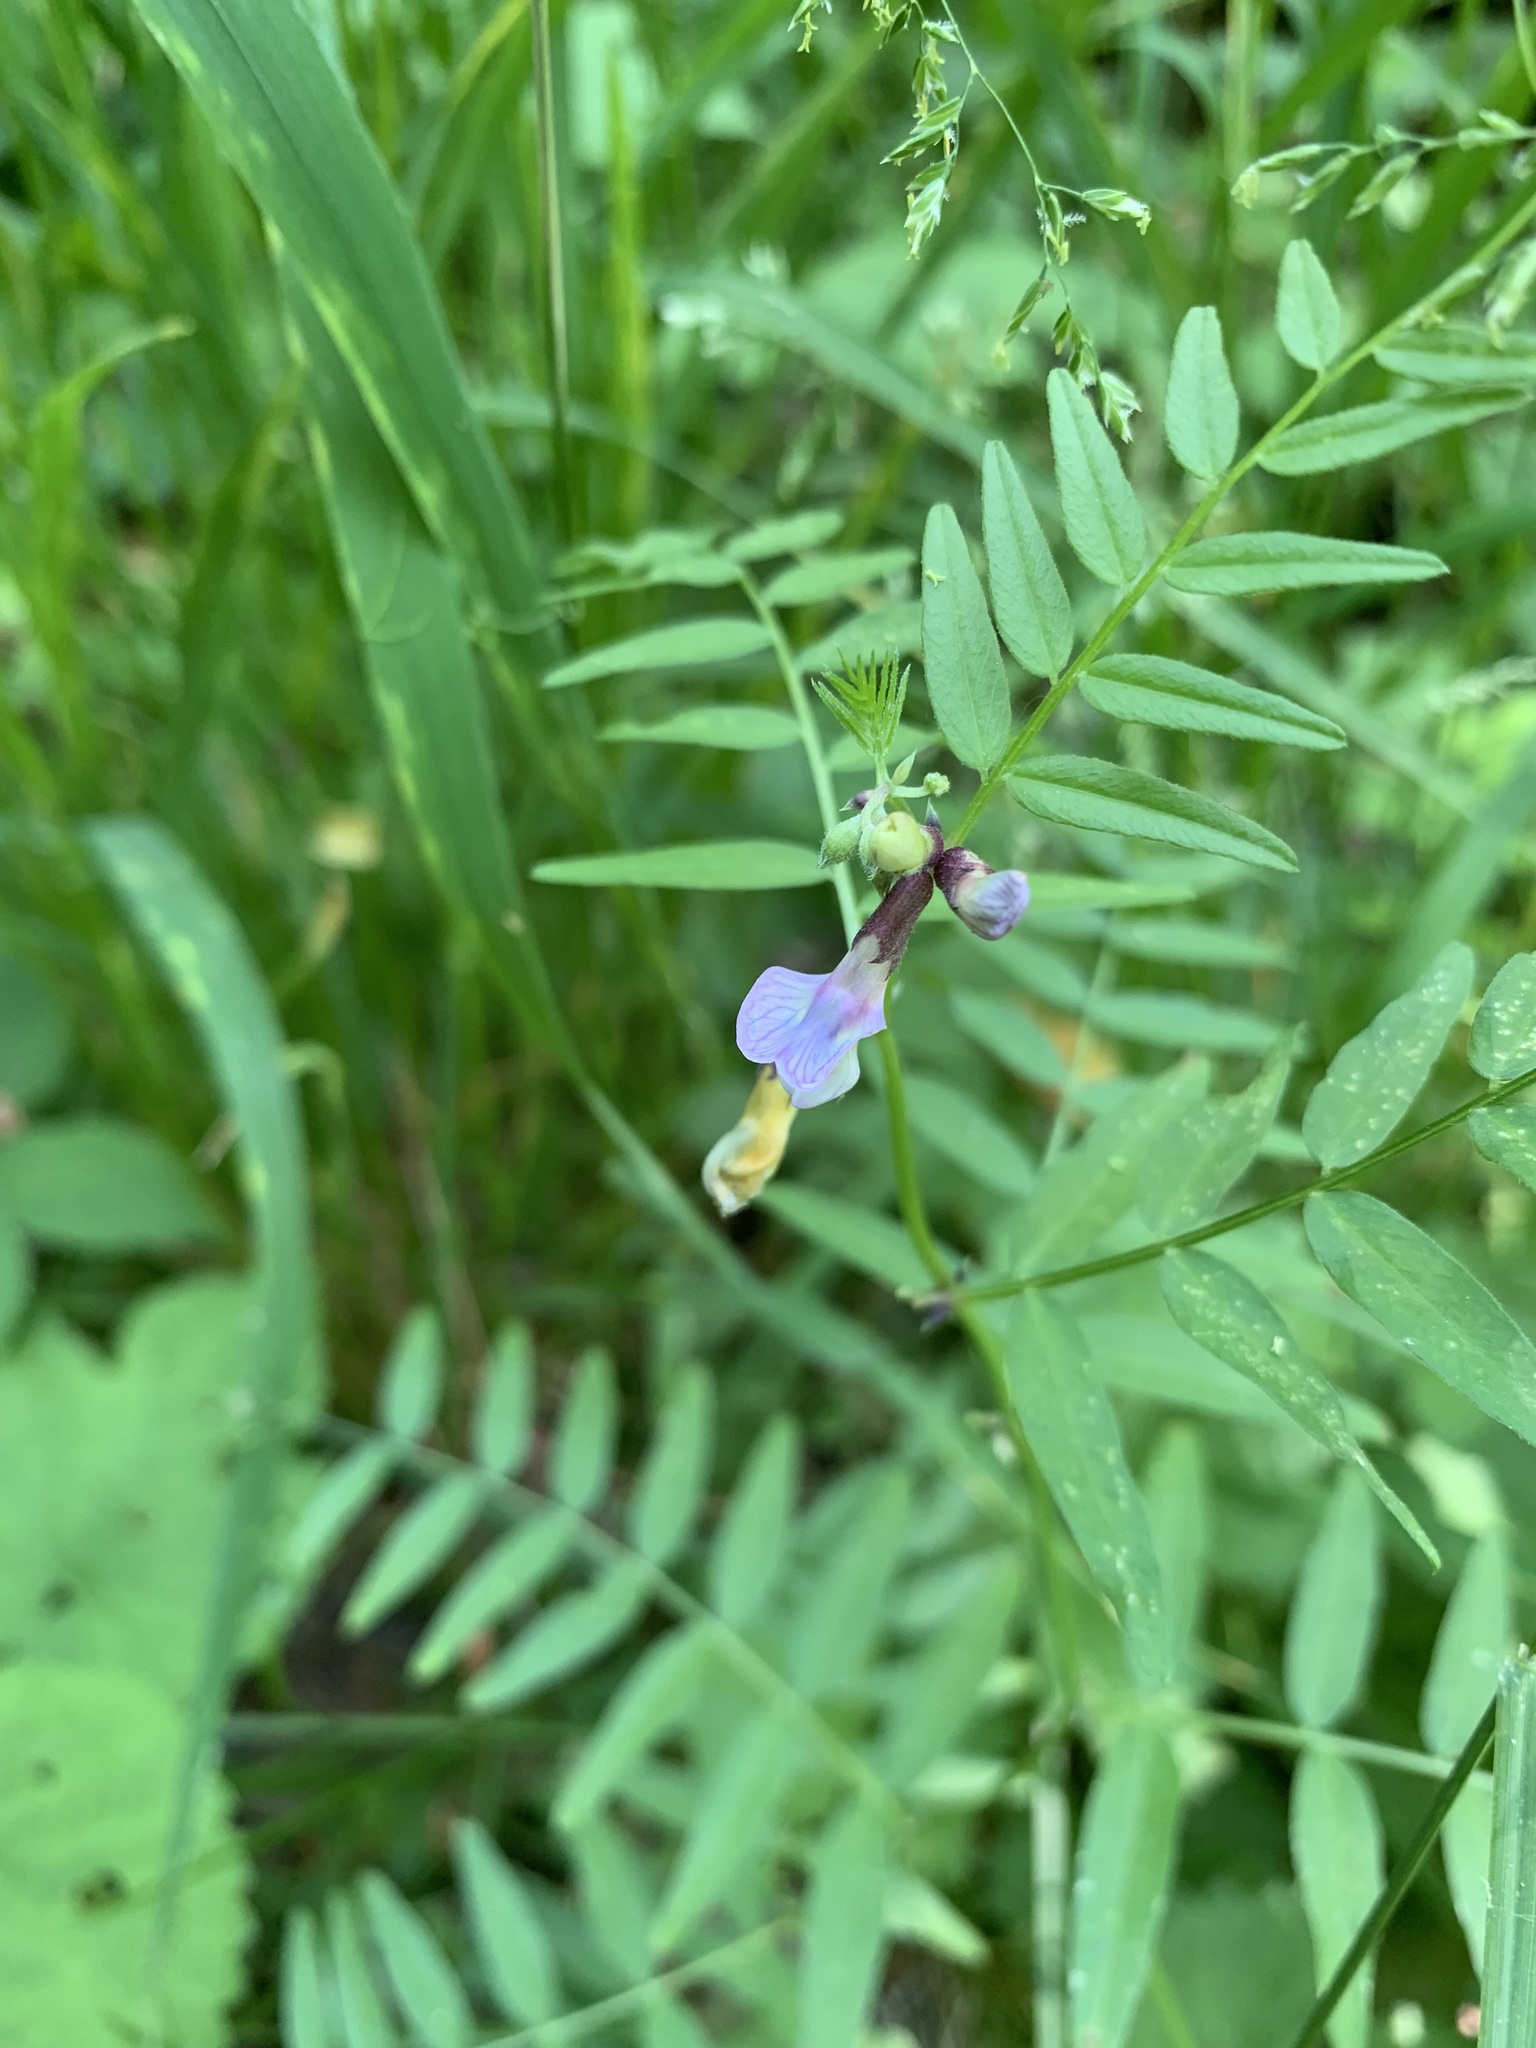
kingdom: Plantae
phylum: Tracheophyta
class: Magnoliopsida
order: Fabales
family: Fabaceae
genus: Vicia
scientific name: Vicia sepium
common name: Bush vetch
